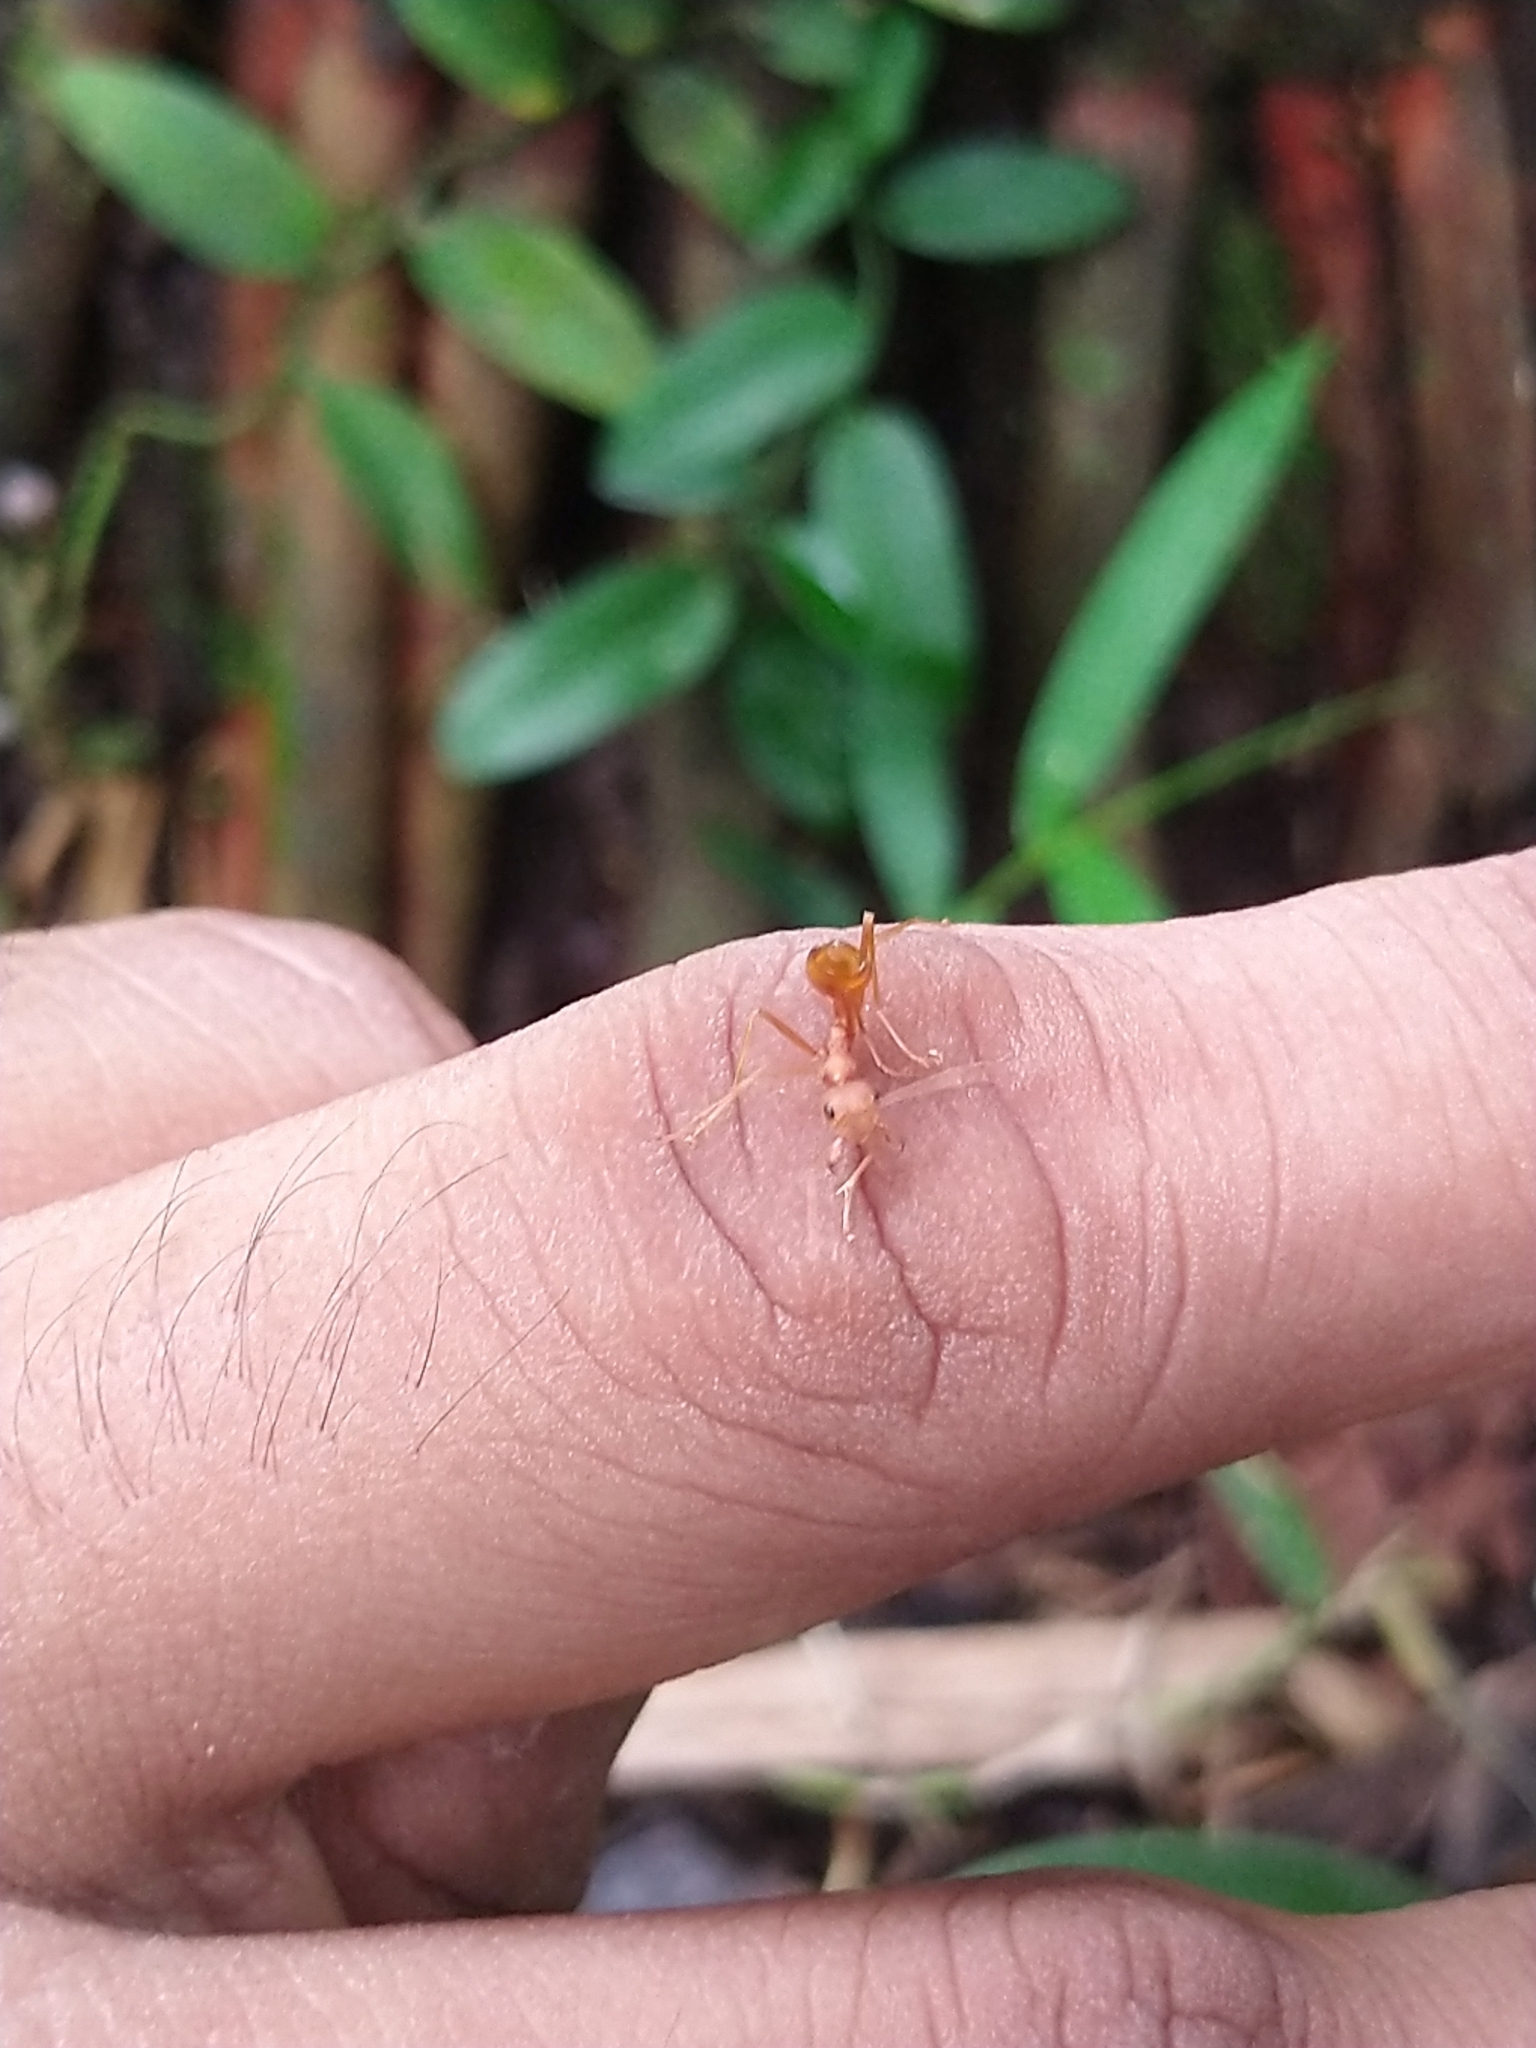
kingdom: Animalia
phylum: Arthropoda
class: Insecta
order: Hymenoptera
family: Formicidae
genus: Oecophylla
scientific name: Oecophylla smaragdina
